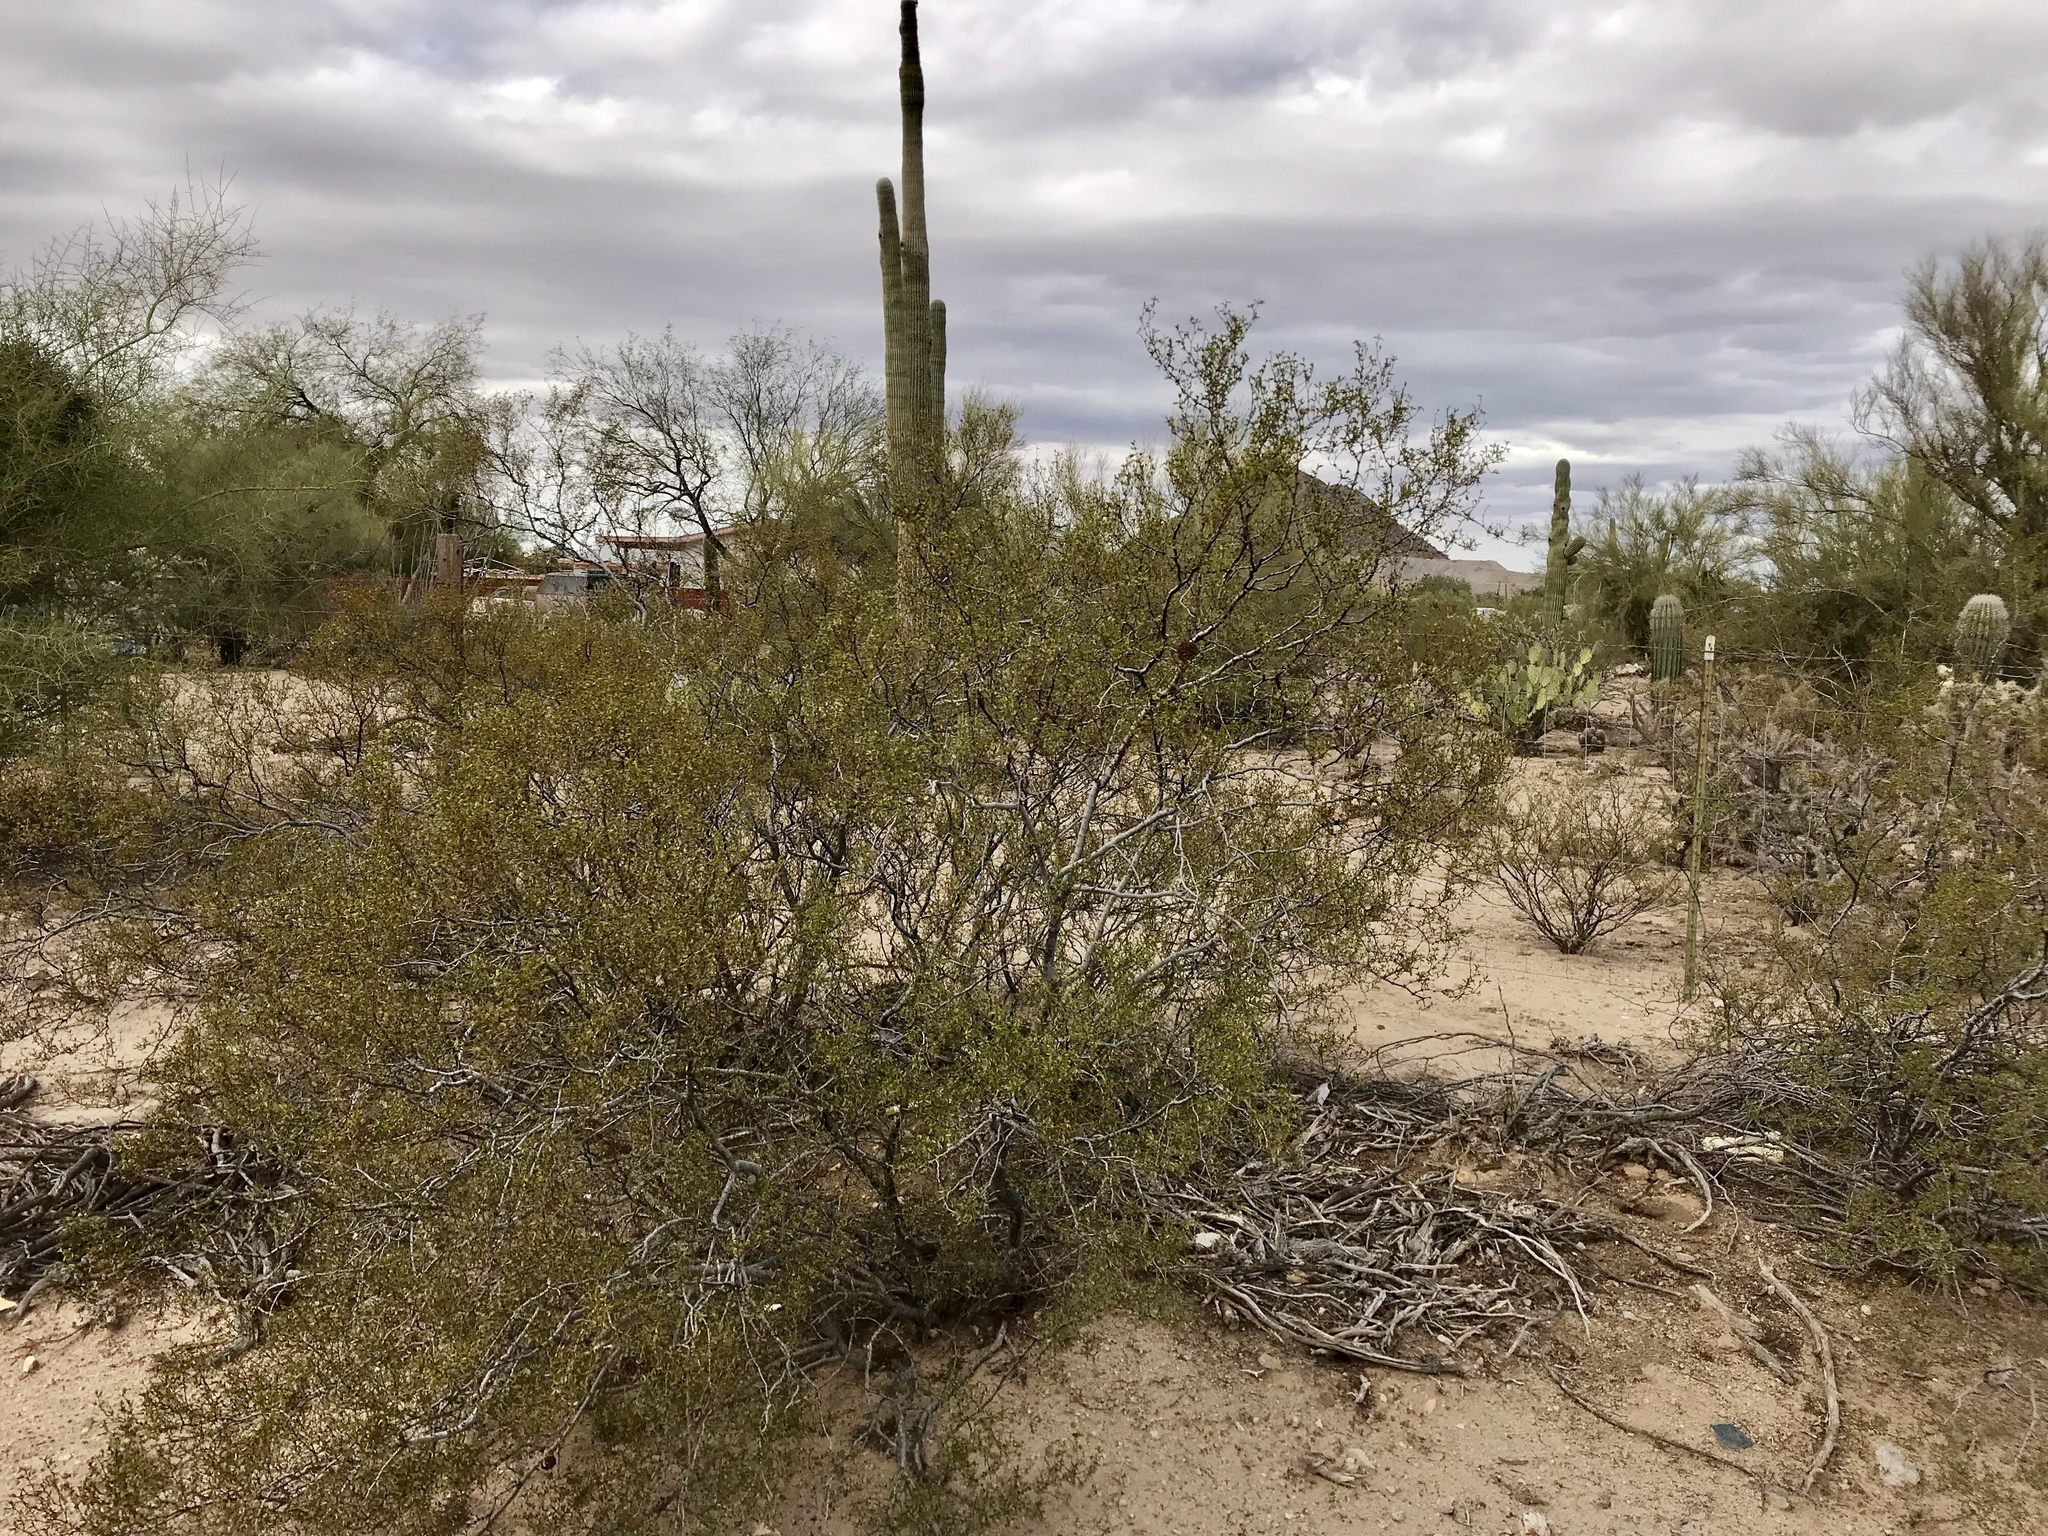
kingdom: Plantae
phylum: Tracheophyta
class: Magnoliopsida
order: Zygophyllales
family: Zygophyllaceae
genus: Larrea
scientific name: Larrea tridentata
